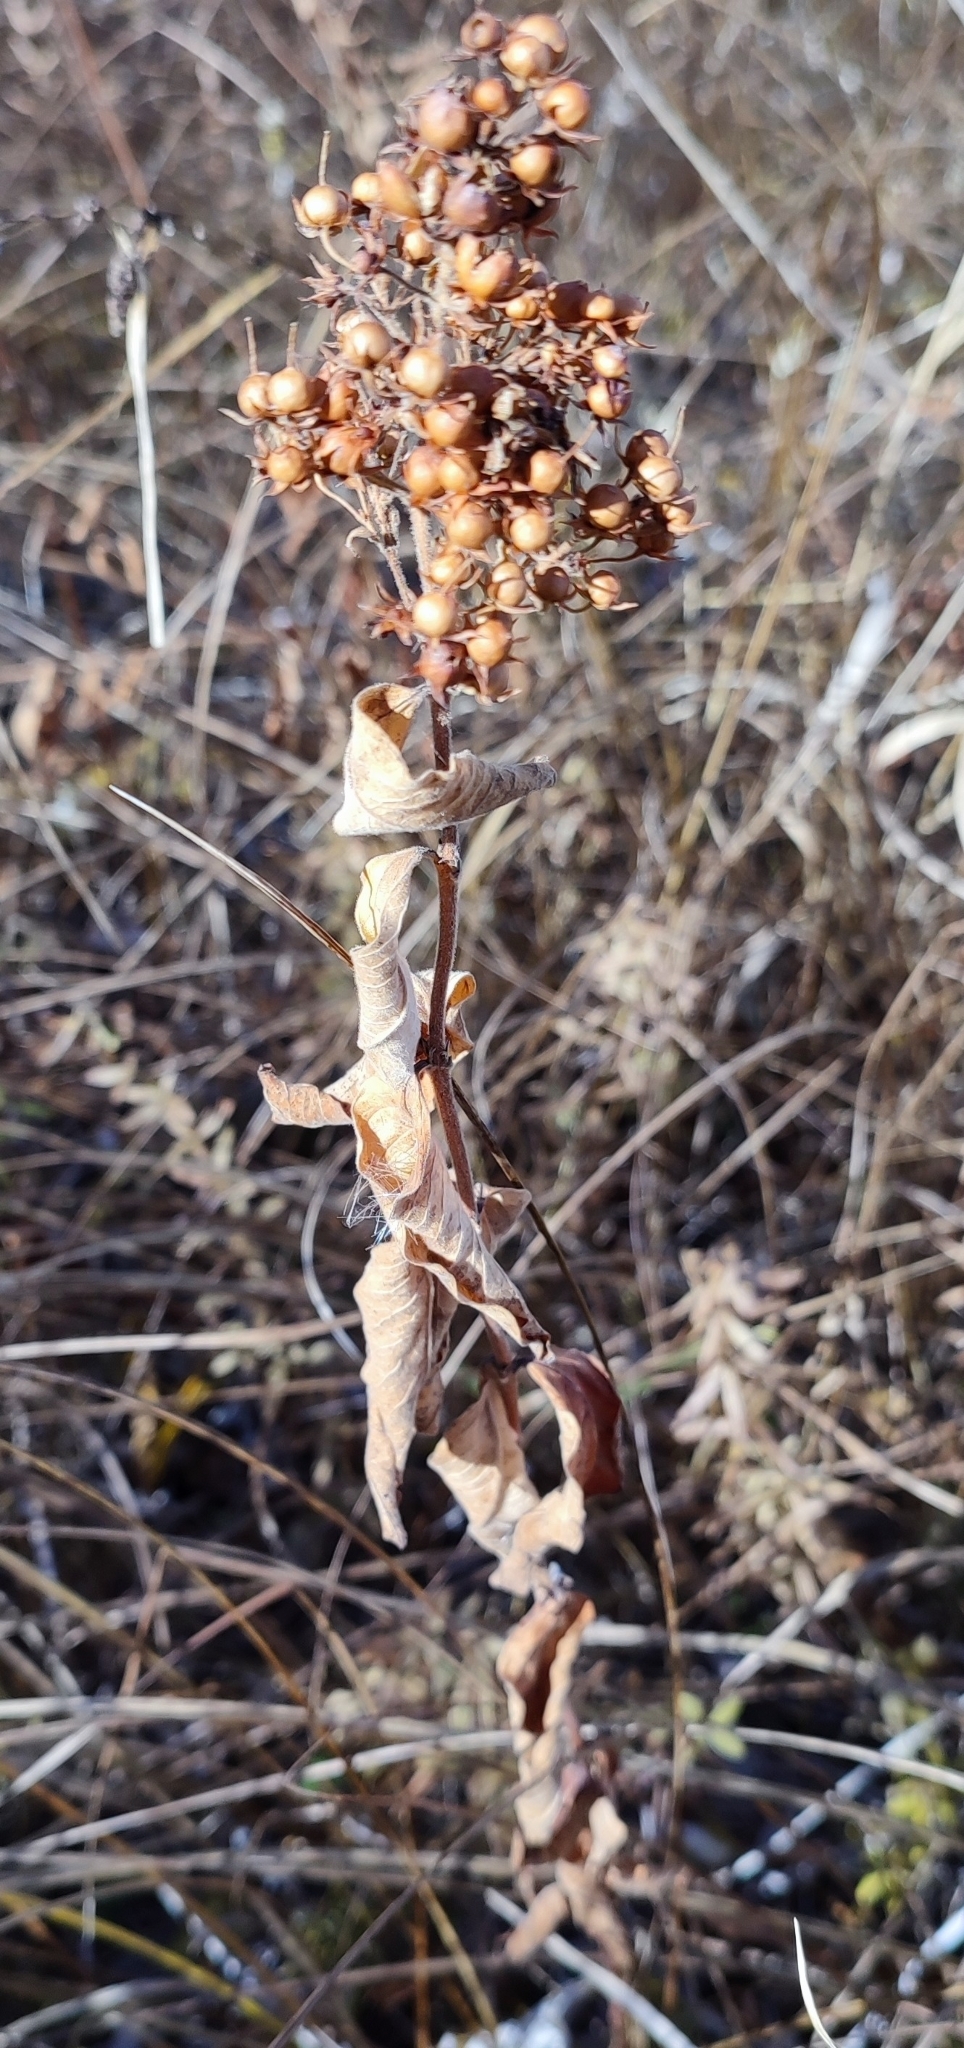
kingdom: Plantae
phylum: Tracheophyta
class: Magnoliopsida
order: Ericales
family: Primulaceae
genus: Lysimachia
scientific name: Lysimachia vulgaris
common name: Yellow loosestrife
